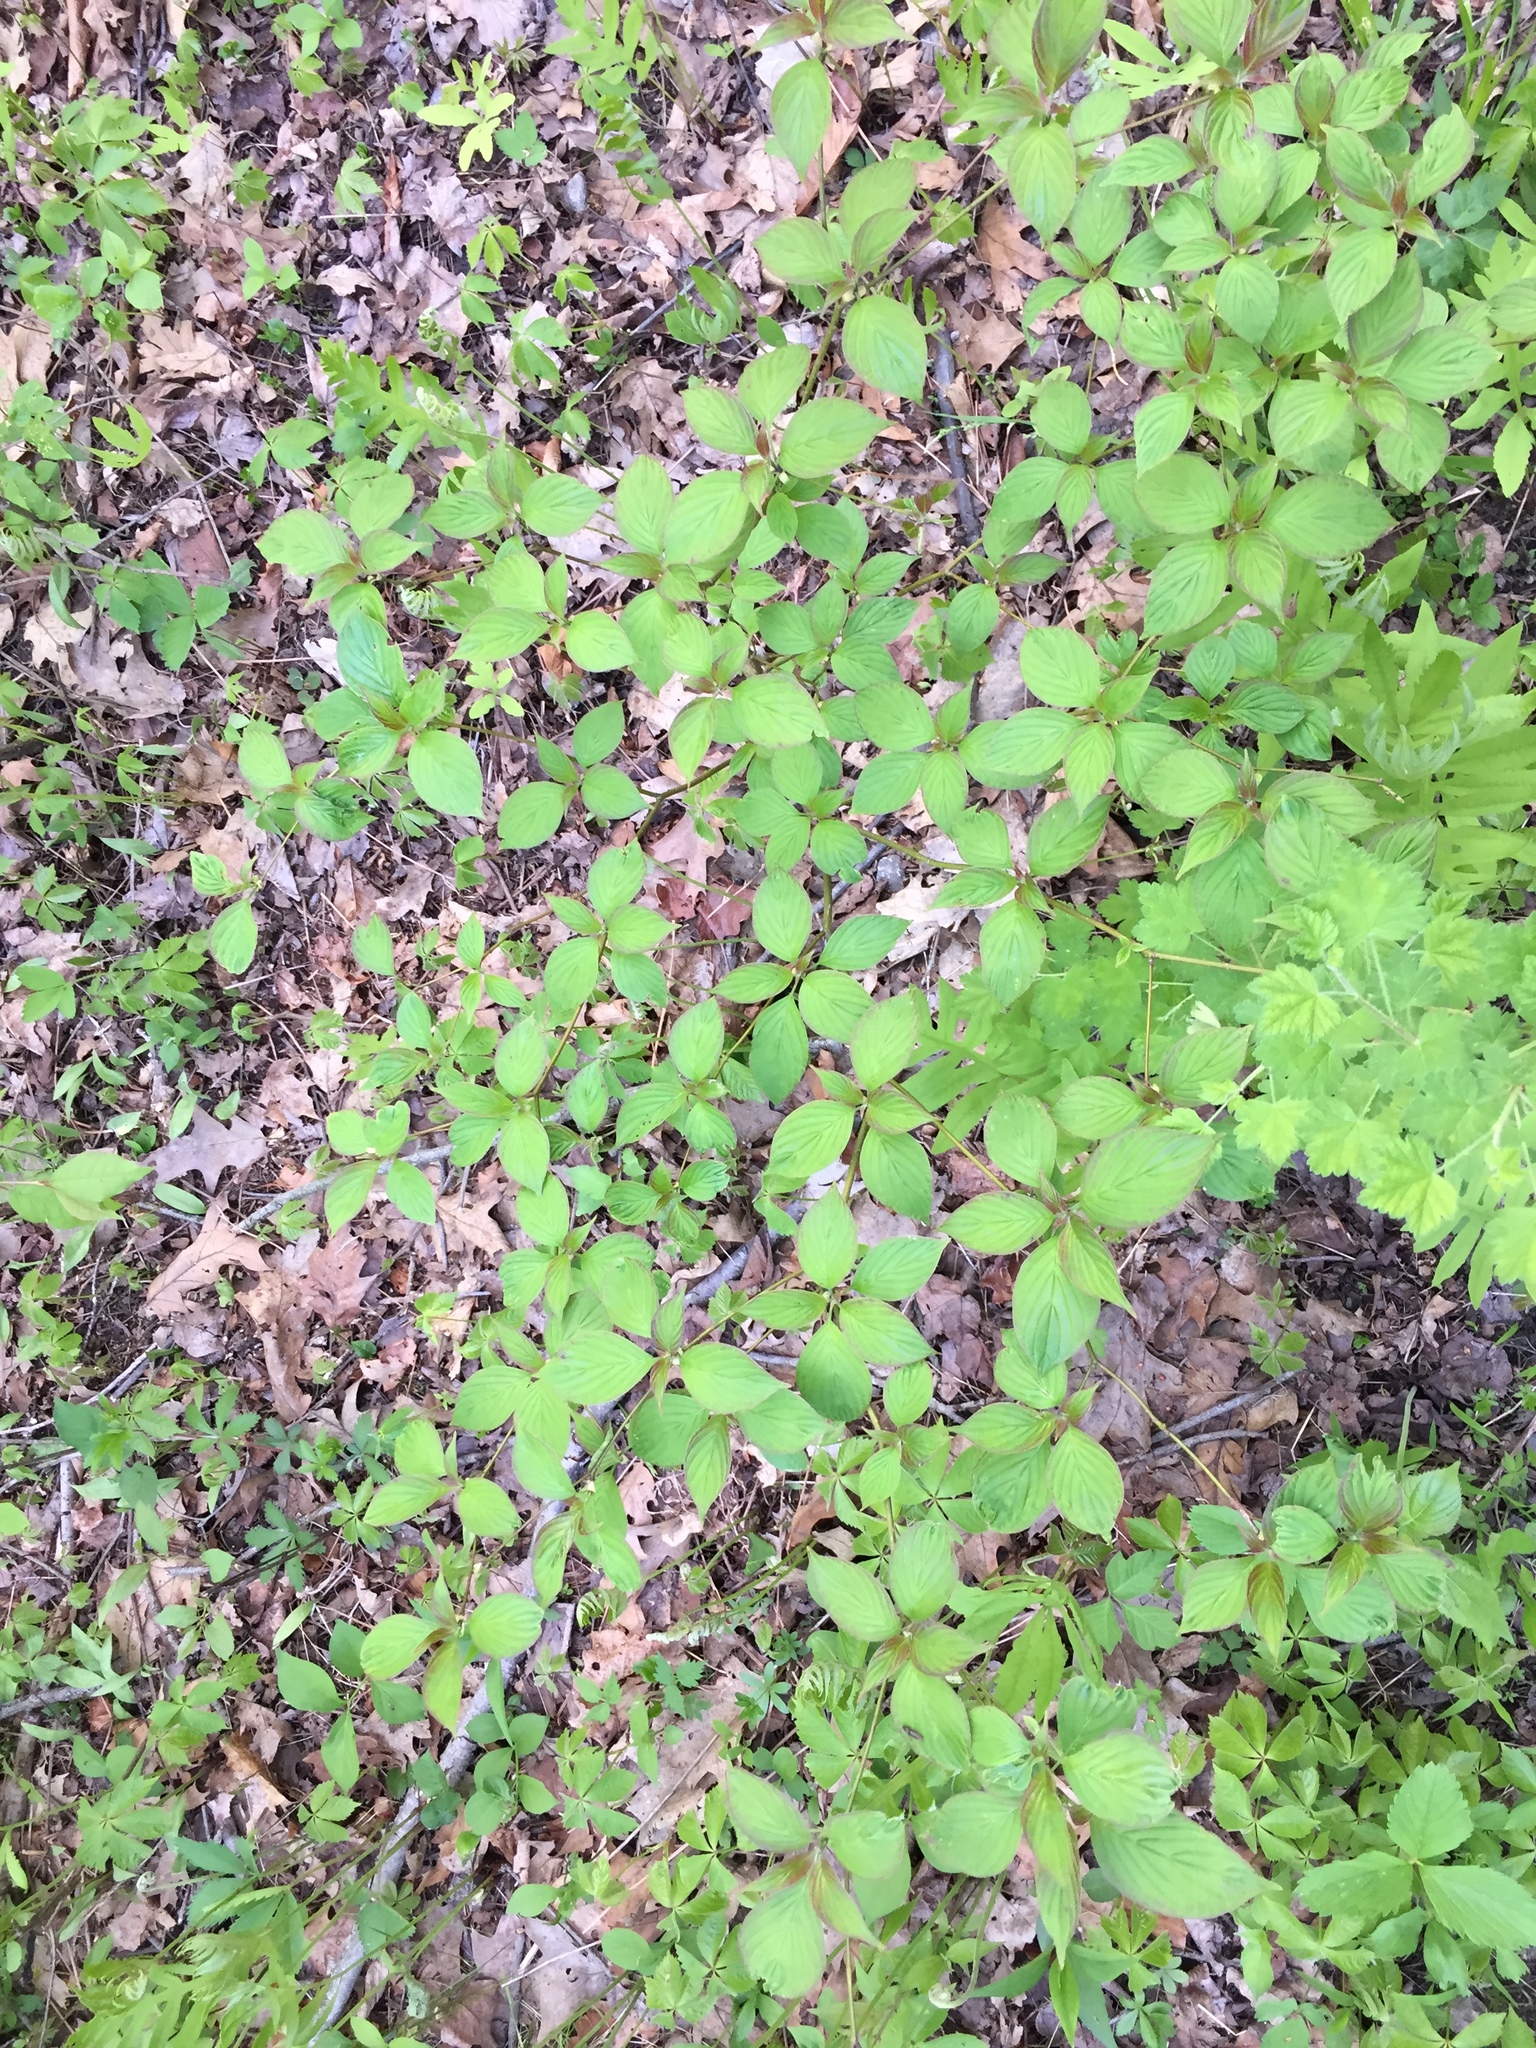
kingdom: Plantae
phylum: Tracheophyta
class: Magnoliopsida
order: Cornales
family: Cornaceae
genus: Cornus
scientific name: Cornus alternifolia
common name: Pagoda dogwood
